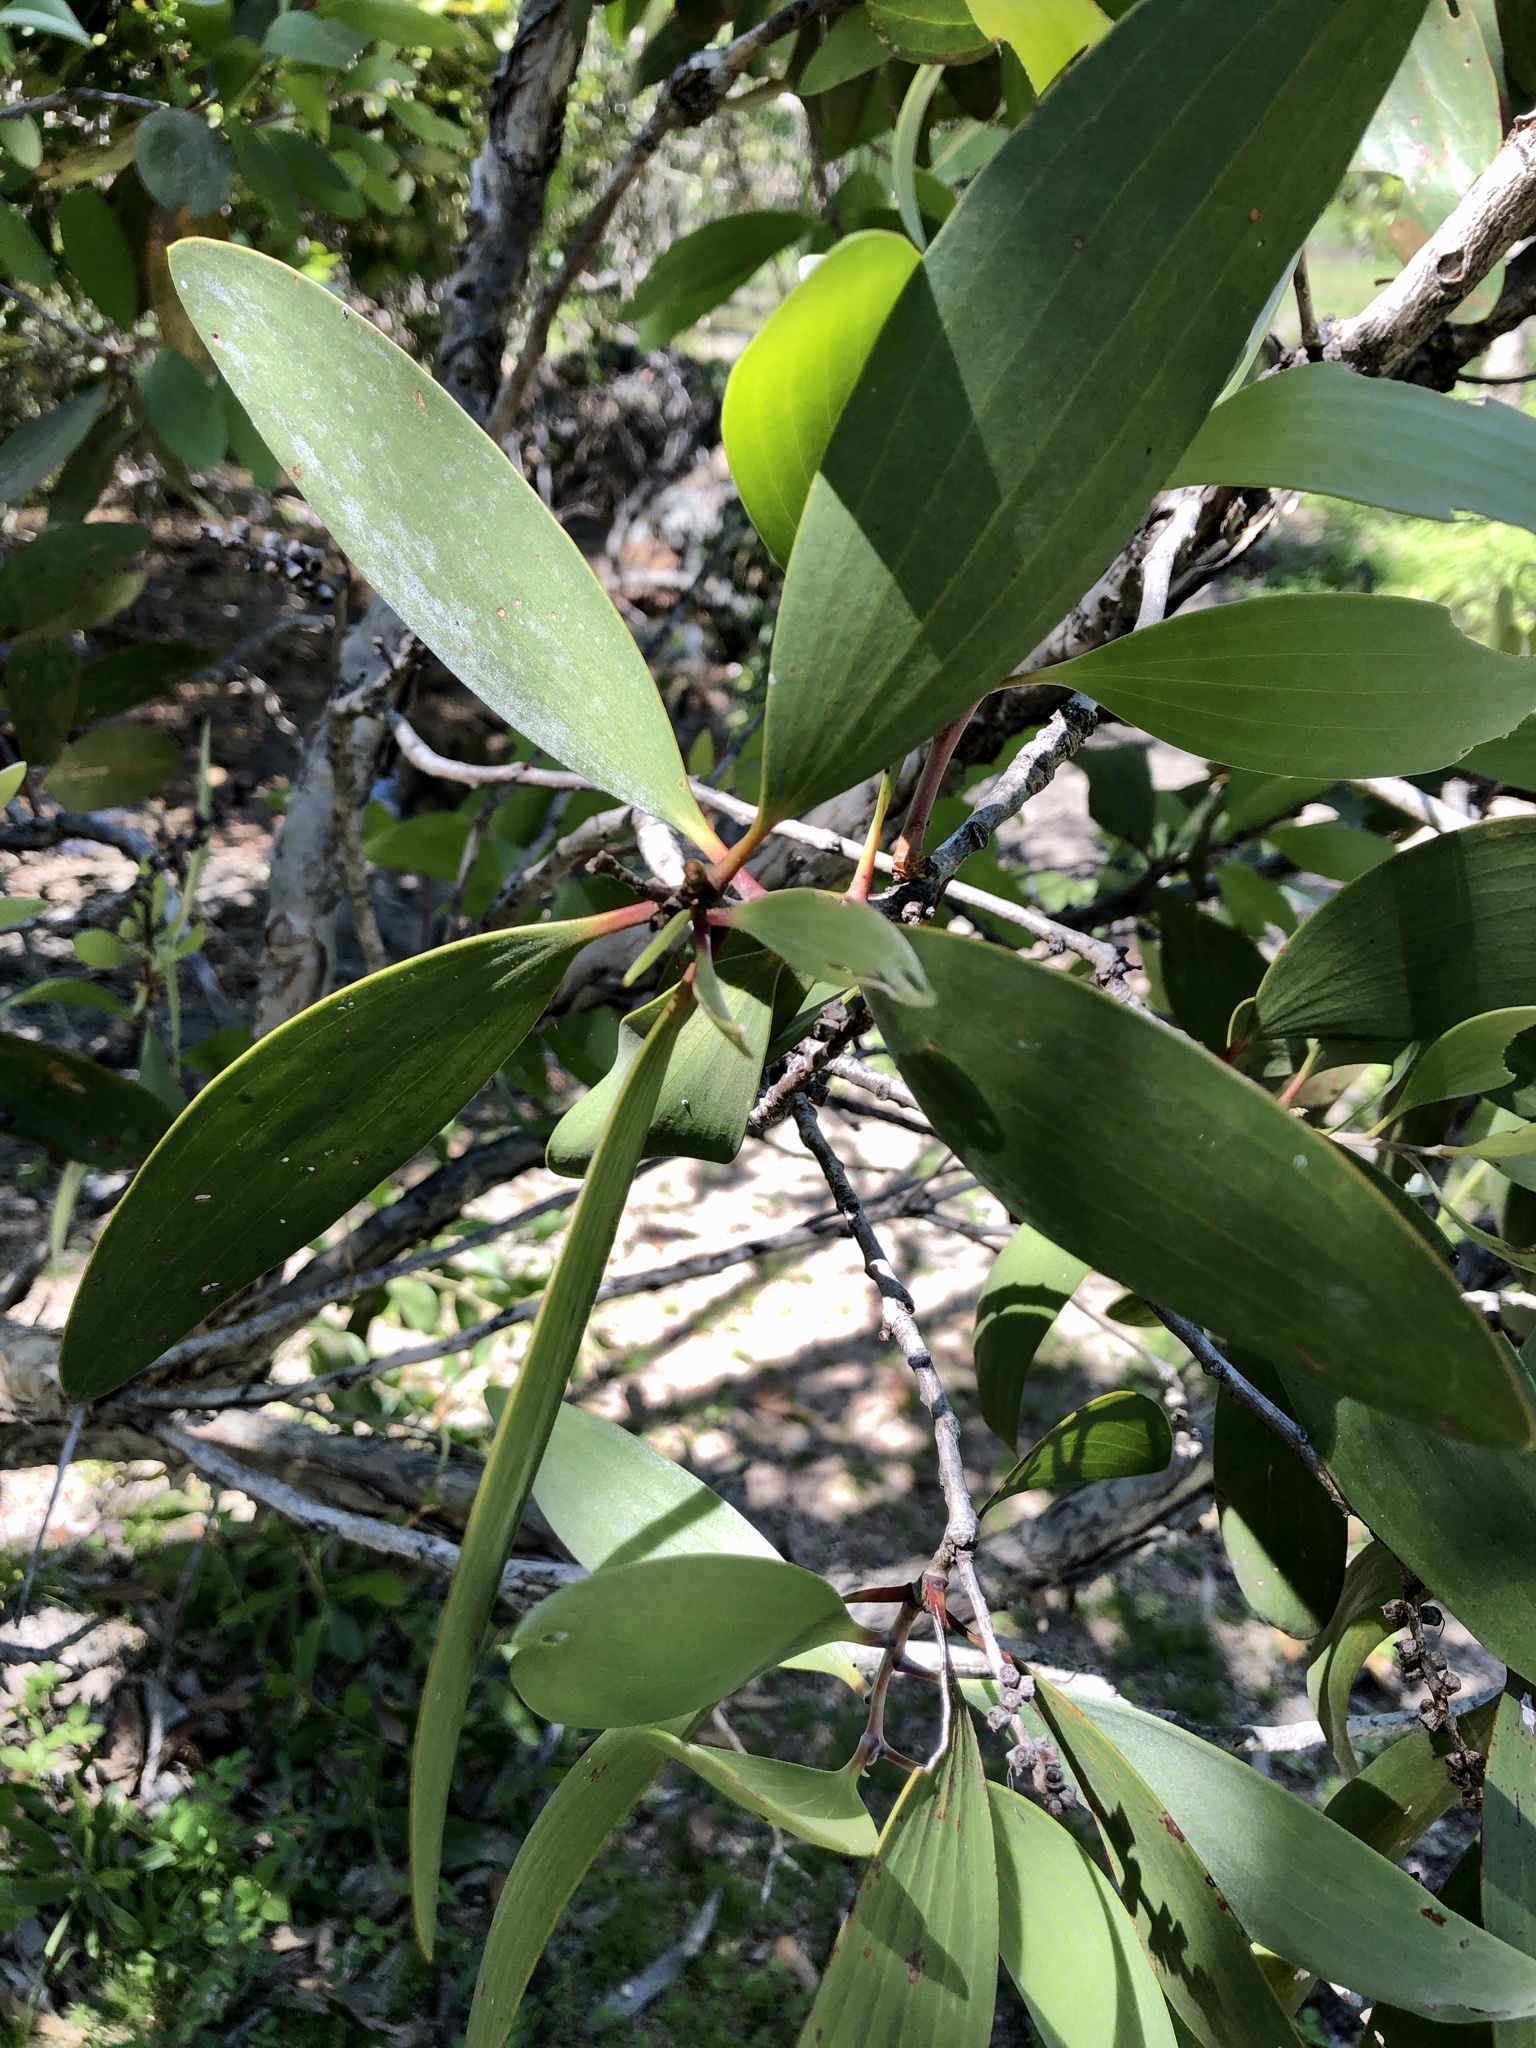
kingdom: Plantae
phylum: Tracheophyta
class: Magnoliopsida
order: Myrtales
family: Myrtaceae
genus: Melaleuca
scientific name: Melaleuca viridiflora
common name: Brown-leaved paperbark
